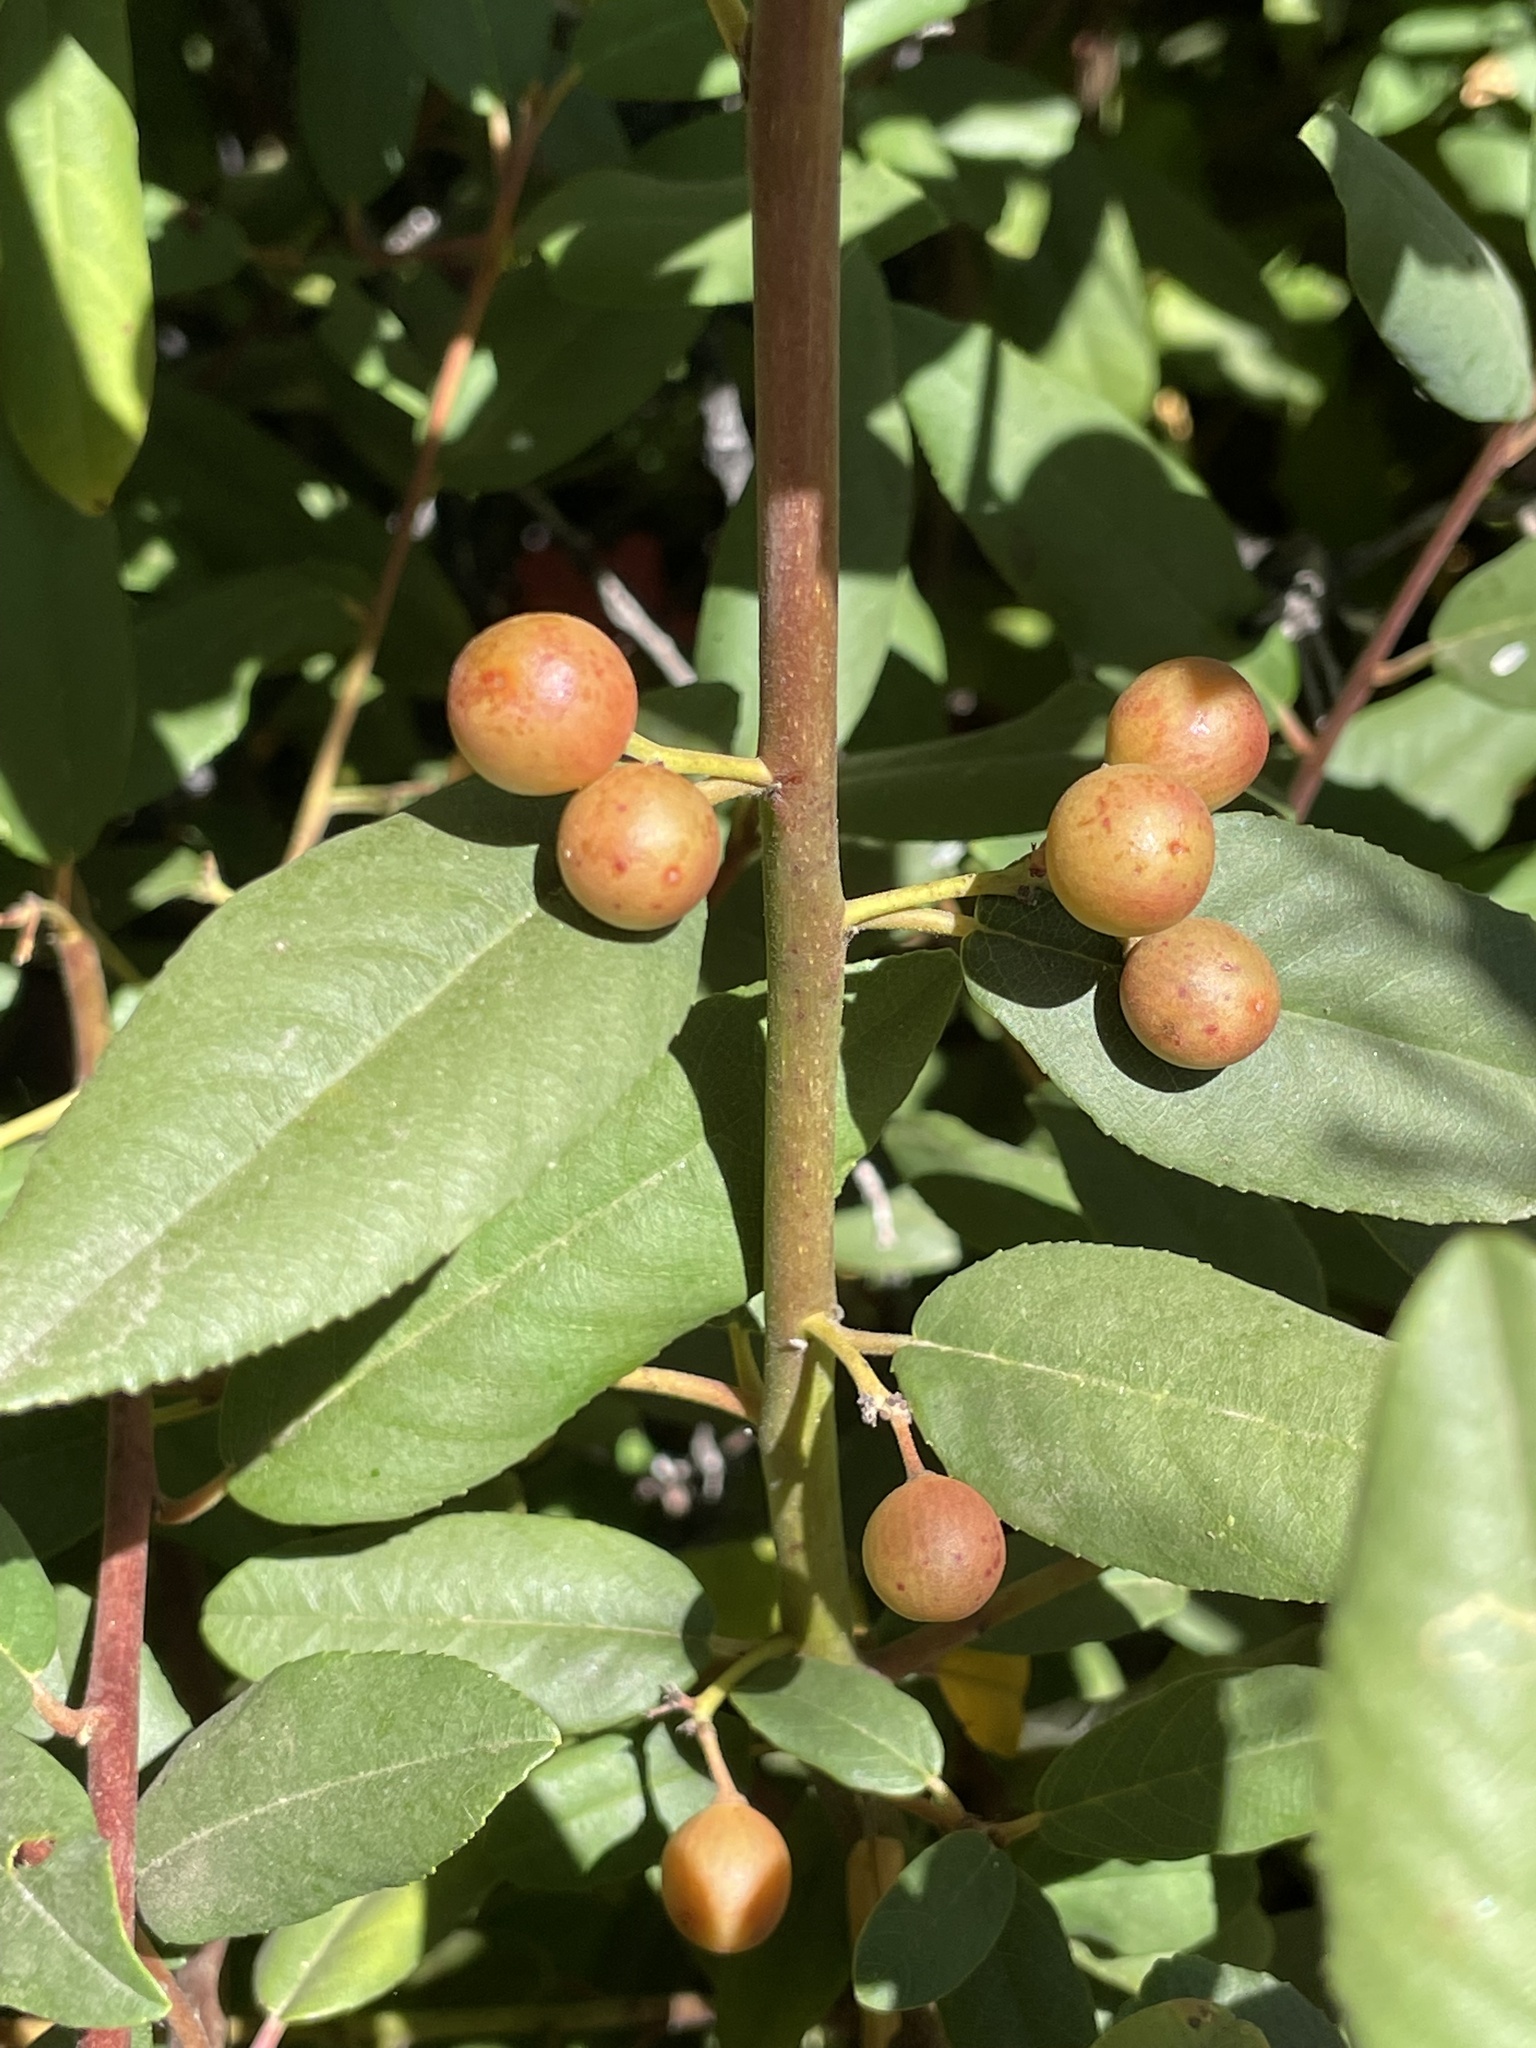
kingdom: Plantae
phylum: Tracheophyta
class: Magnoliopsida
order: Rosales
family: Rhamnaceae
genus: Frangula
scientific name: Frangula californica
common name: California buckthorn
